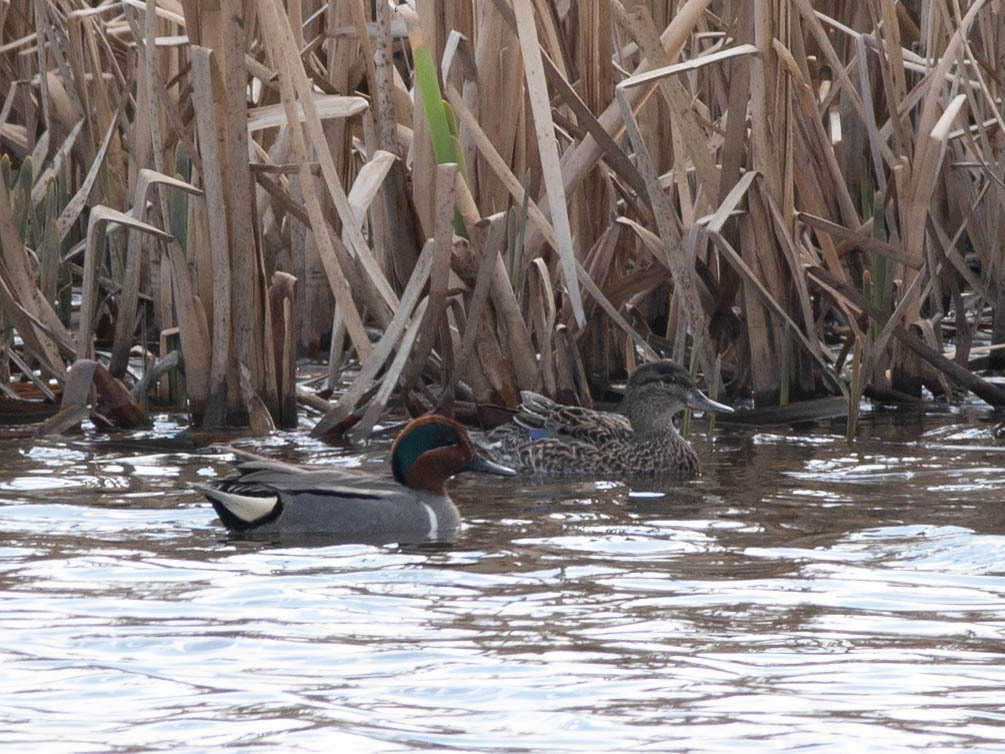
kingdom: Animalia
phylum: Chordata
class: Aves
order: Anseriformes
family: Anatidae
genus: Anas
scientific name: Anas crecca
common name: Eurasian teal
